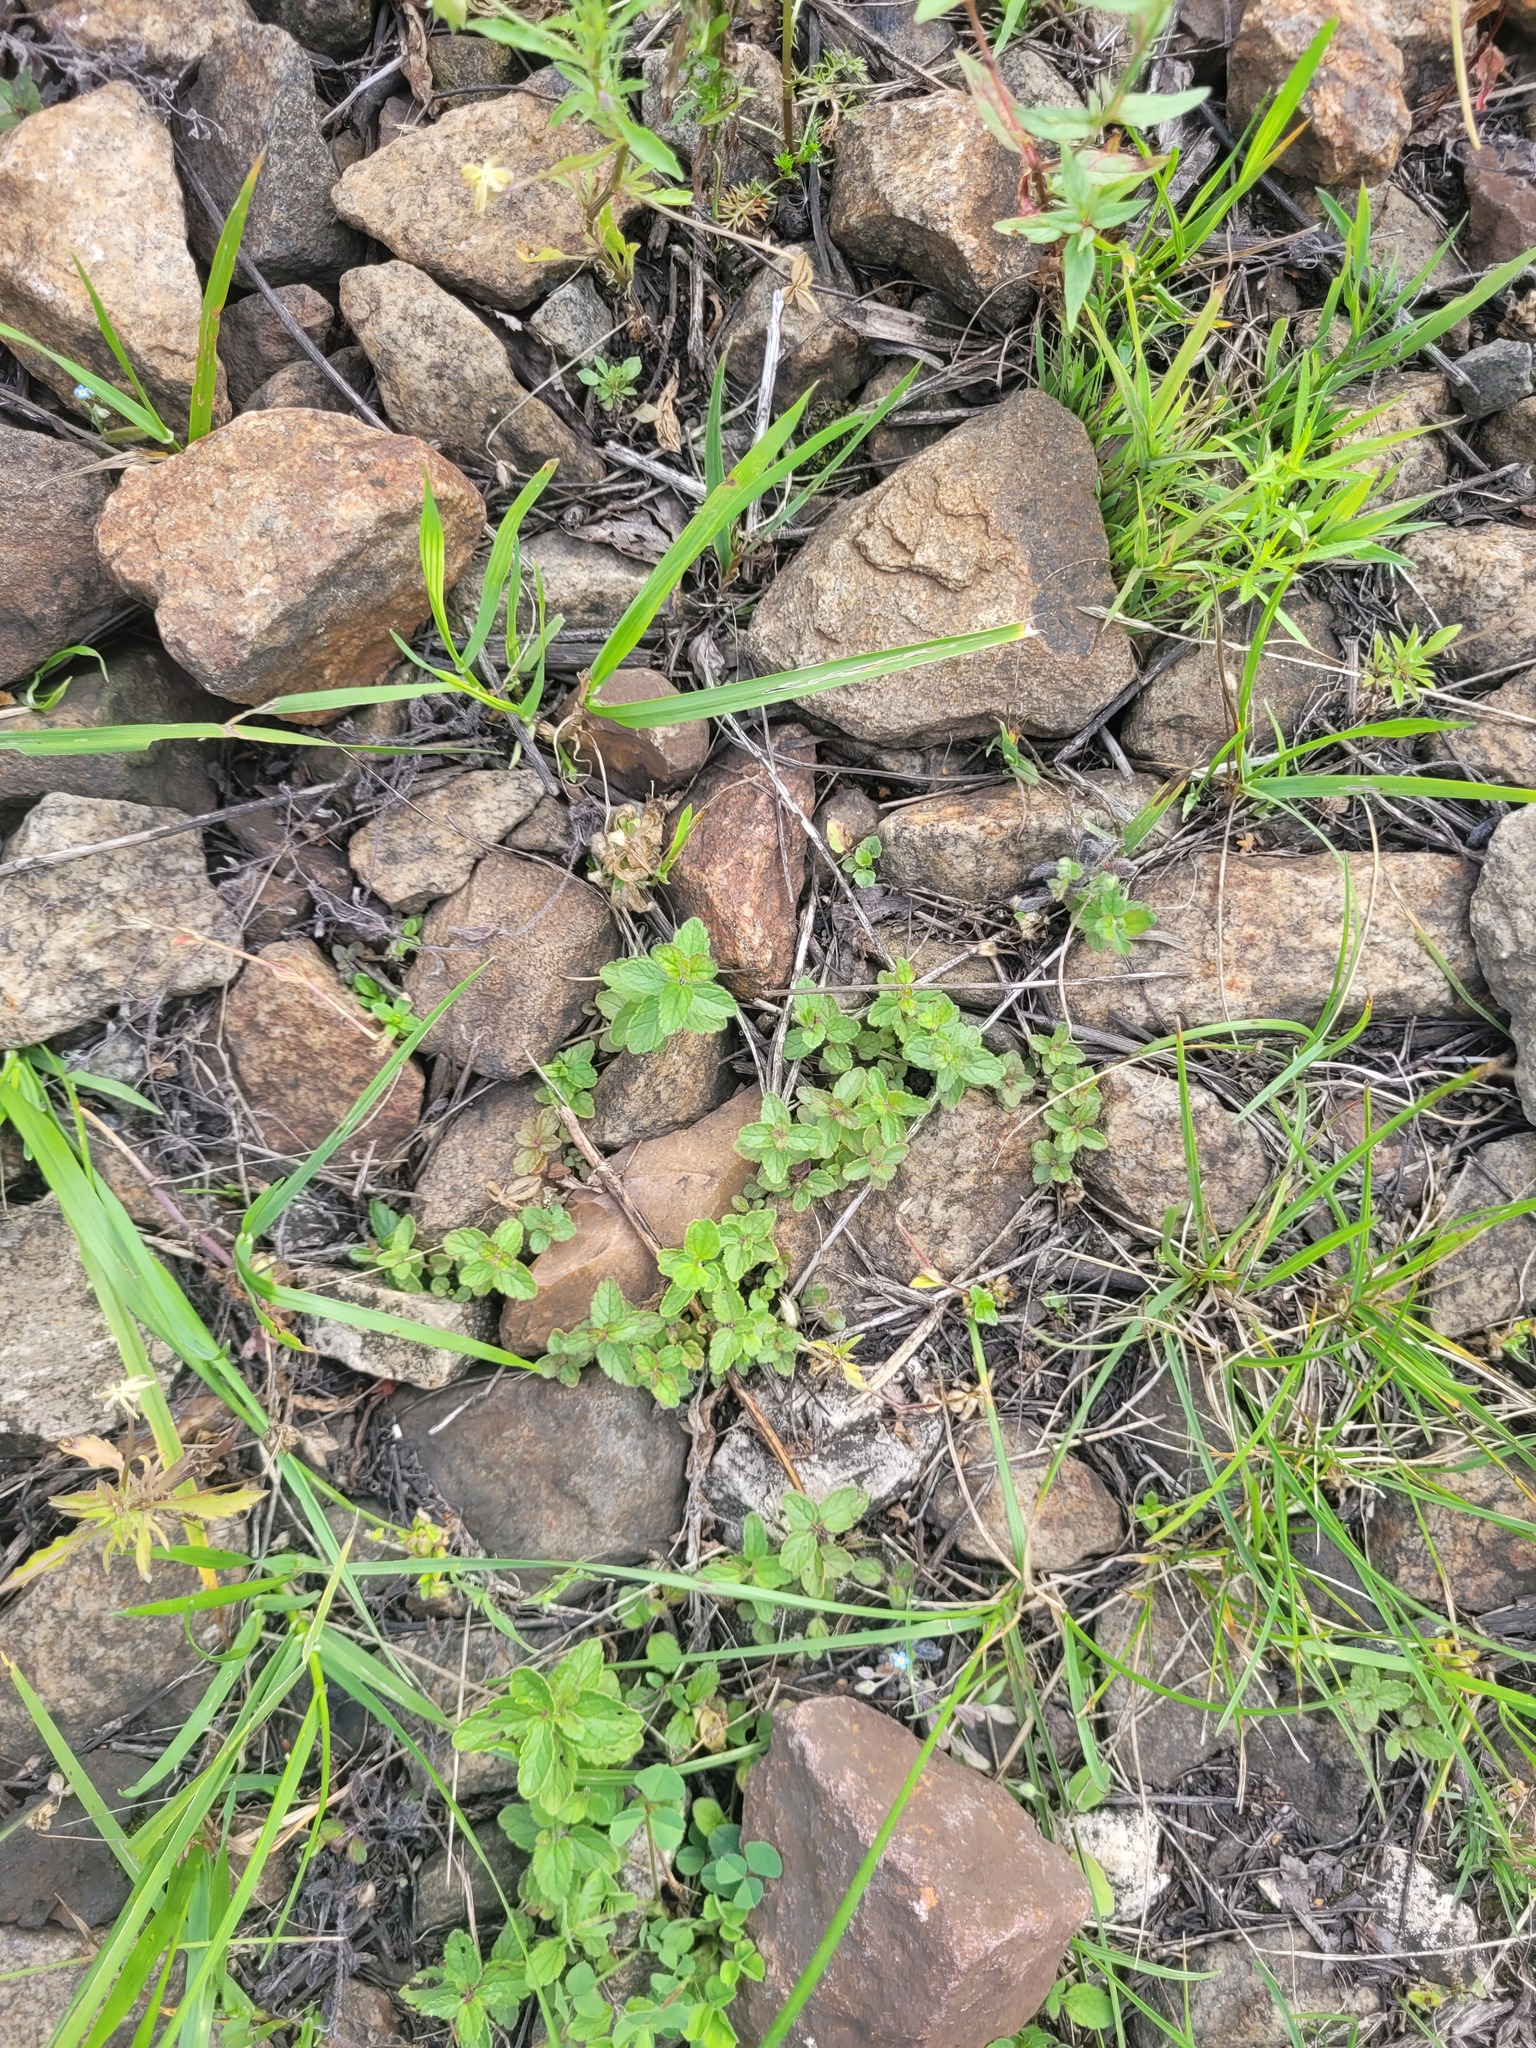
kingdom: Plantae
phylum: Tracheophyta
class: Magnoliopsida
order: Lamiales
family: Plantaginaceae
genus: Veronica
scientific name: Veronica chamaedrys
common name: Germander speedwell
